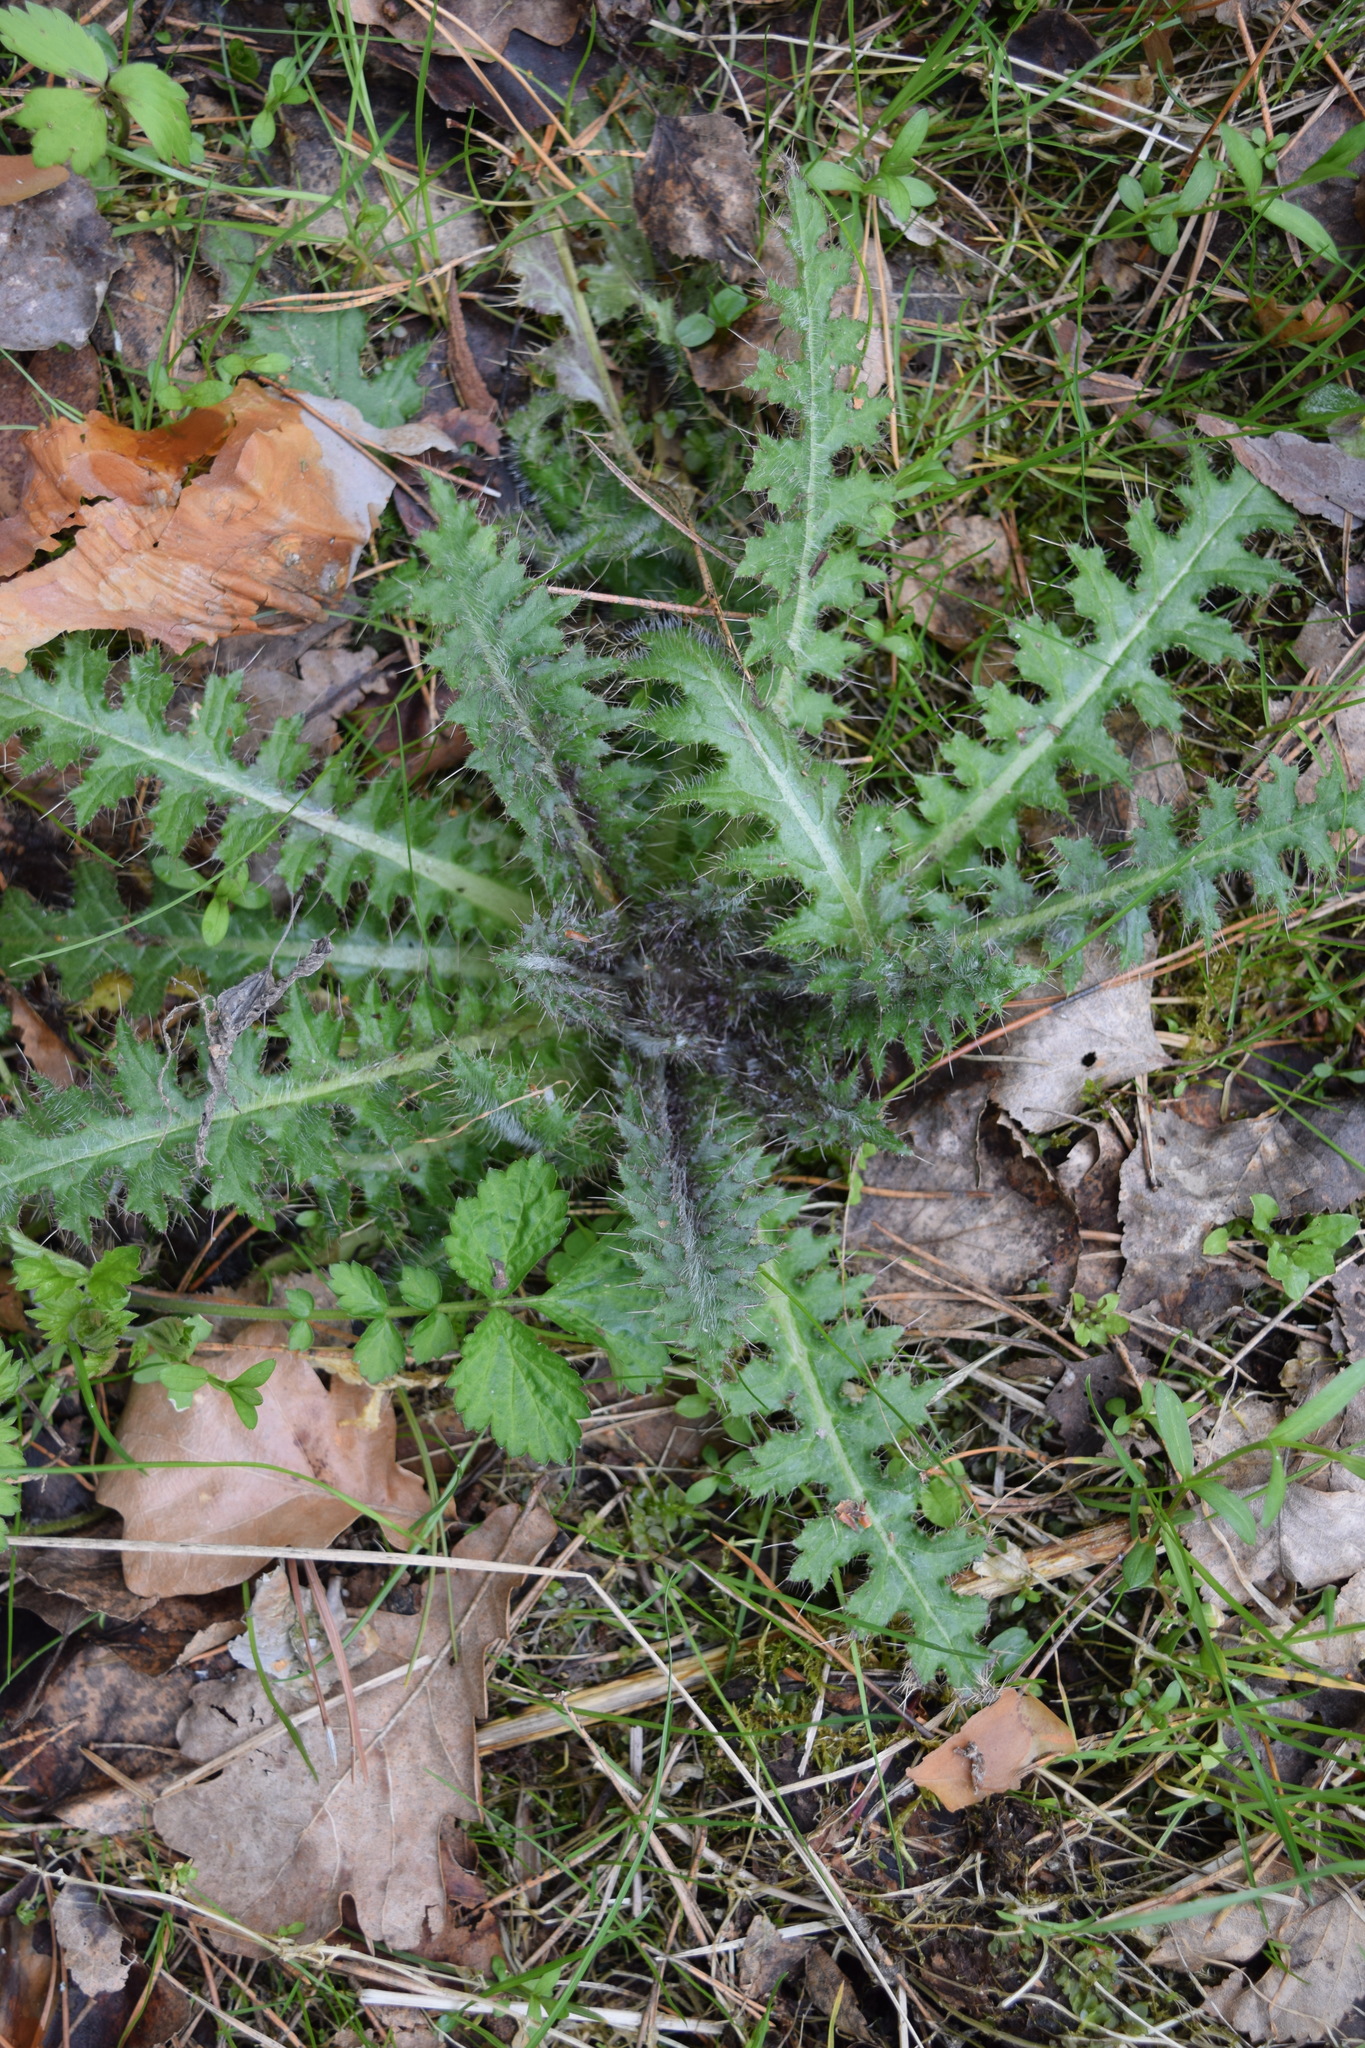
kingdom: Plantae
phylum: Tracheophyta
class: Magnoliopsida
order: Asterales
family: Asteraceae
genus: Cirsium
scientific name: Cirsium palustre
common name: Marsh thistle
